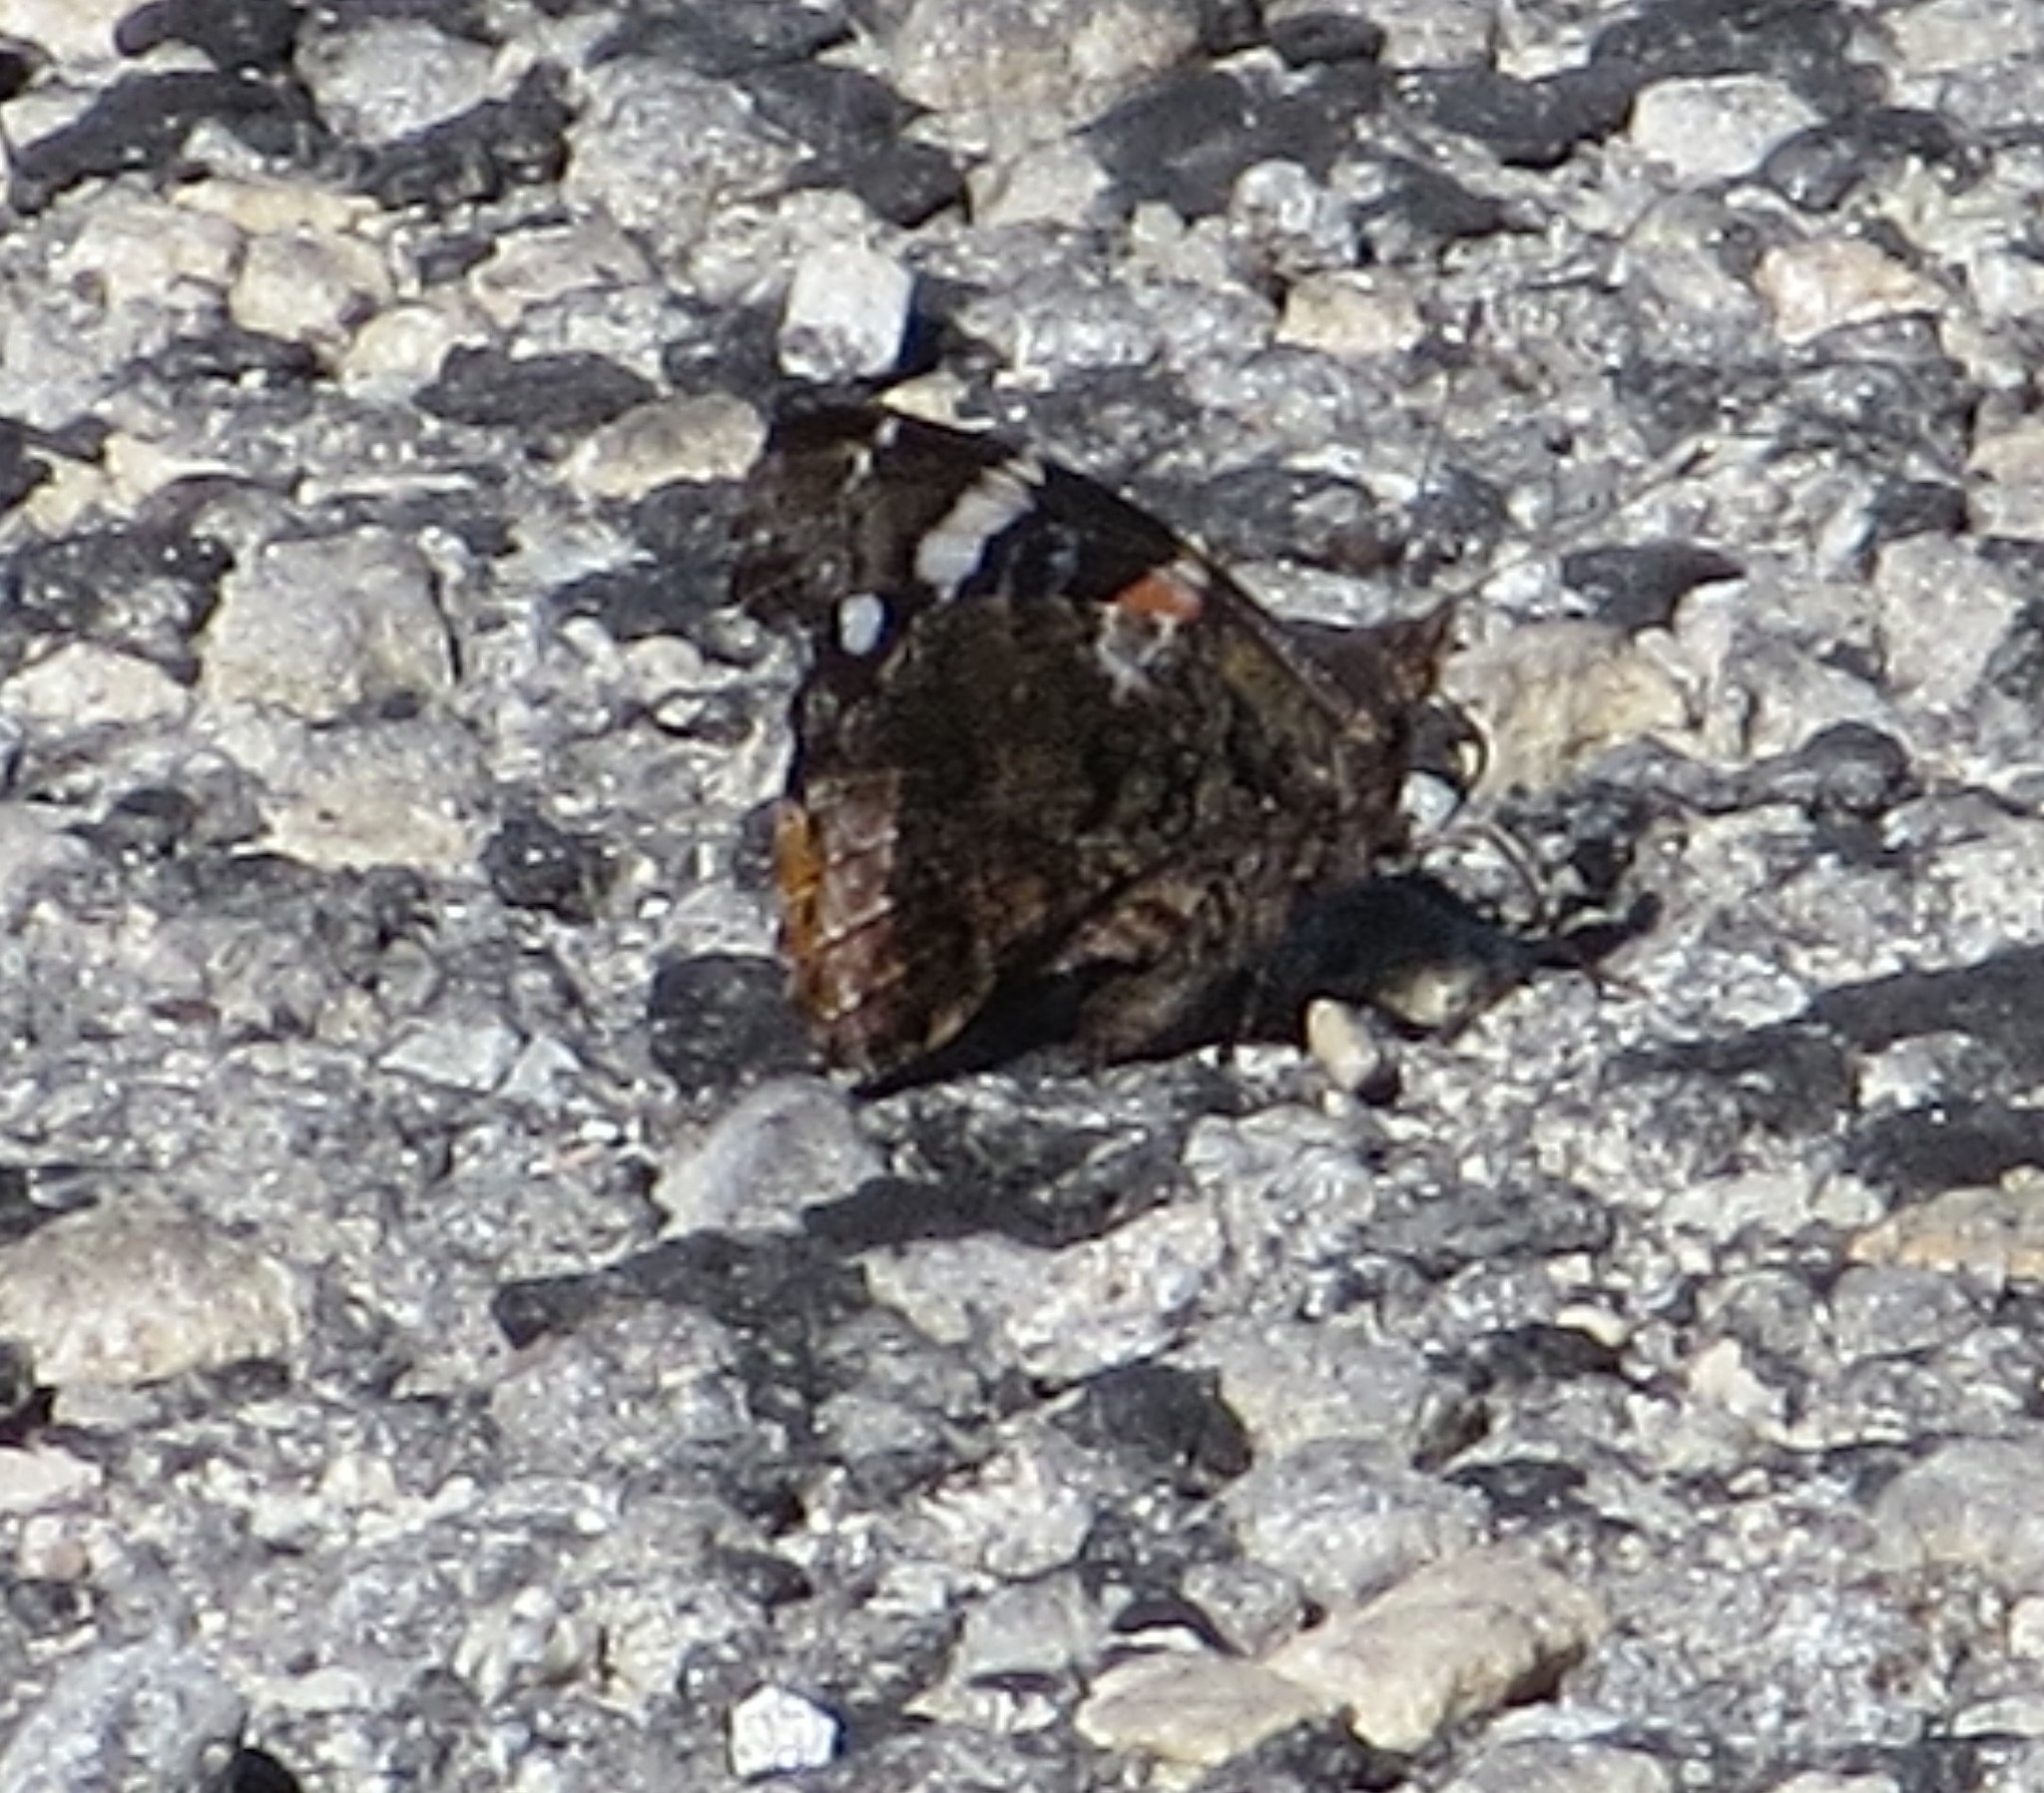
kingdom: Animalia
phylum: Arthropoda
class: Insecta
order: Lepidoptera
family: Nymphalidae
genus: Vanessa
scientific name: Vanessa atalanta
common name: Red admiral
